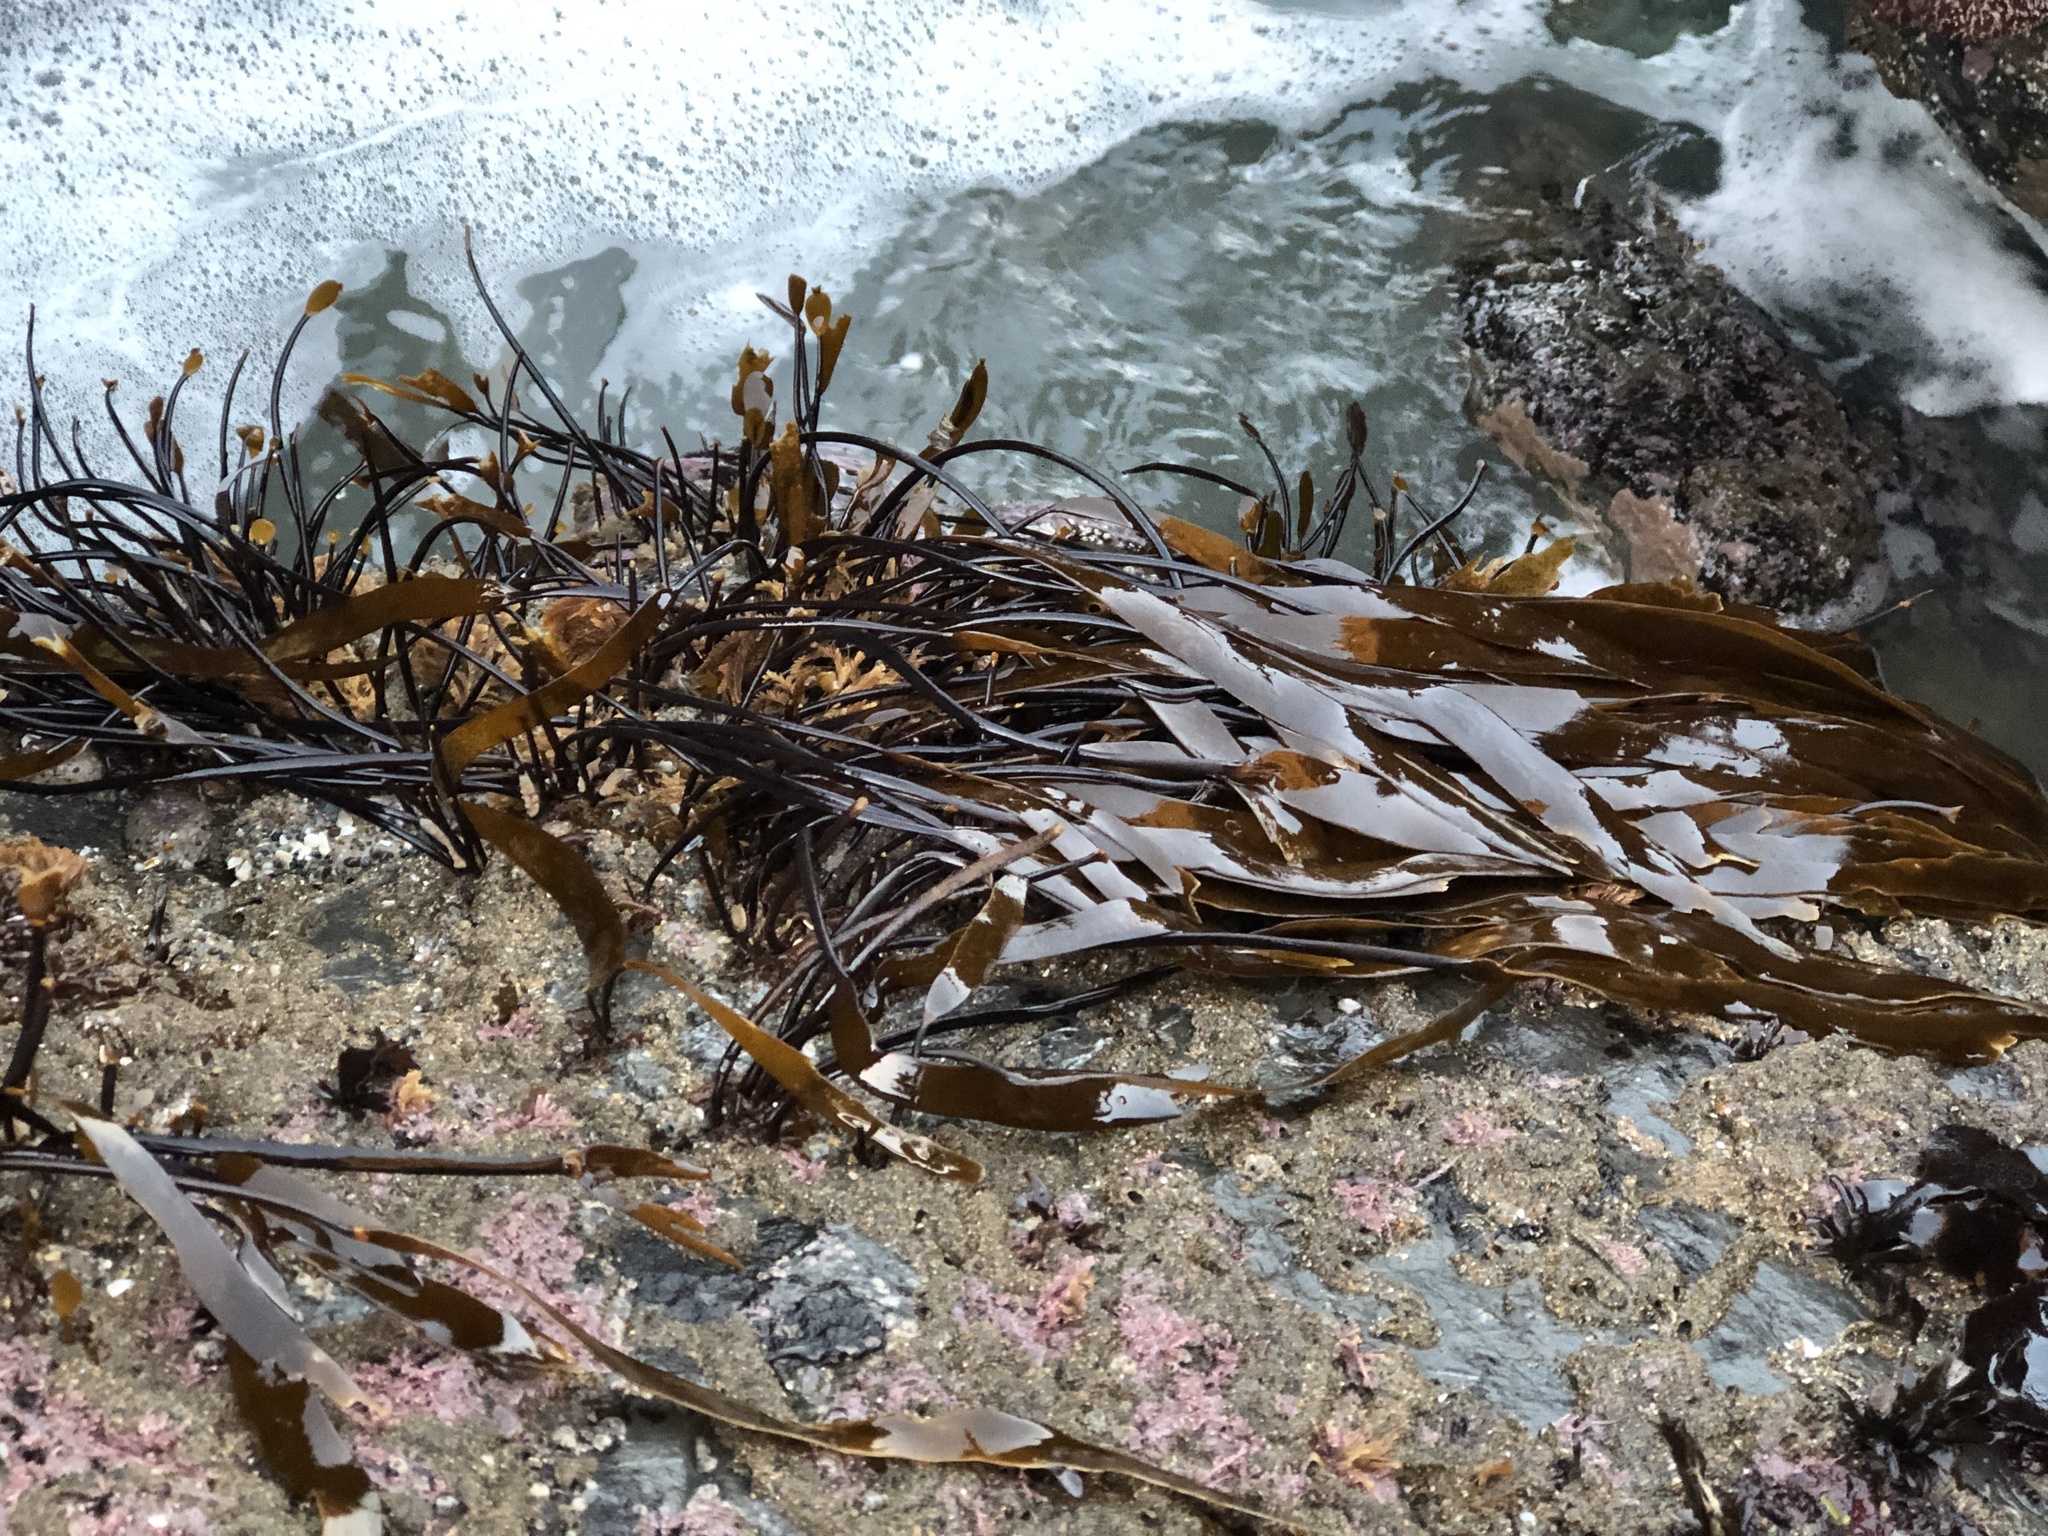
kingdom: Chromista
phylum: Ochrophyta
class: Phaeophyceae
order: Laminariales
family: Laminariaceae
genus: Laminaria
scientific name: Laminaria sinclairii
